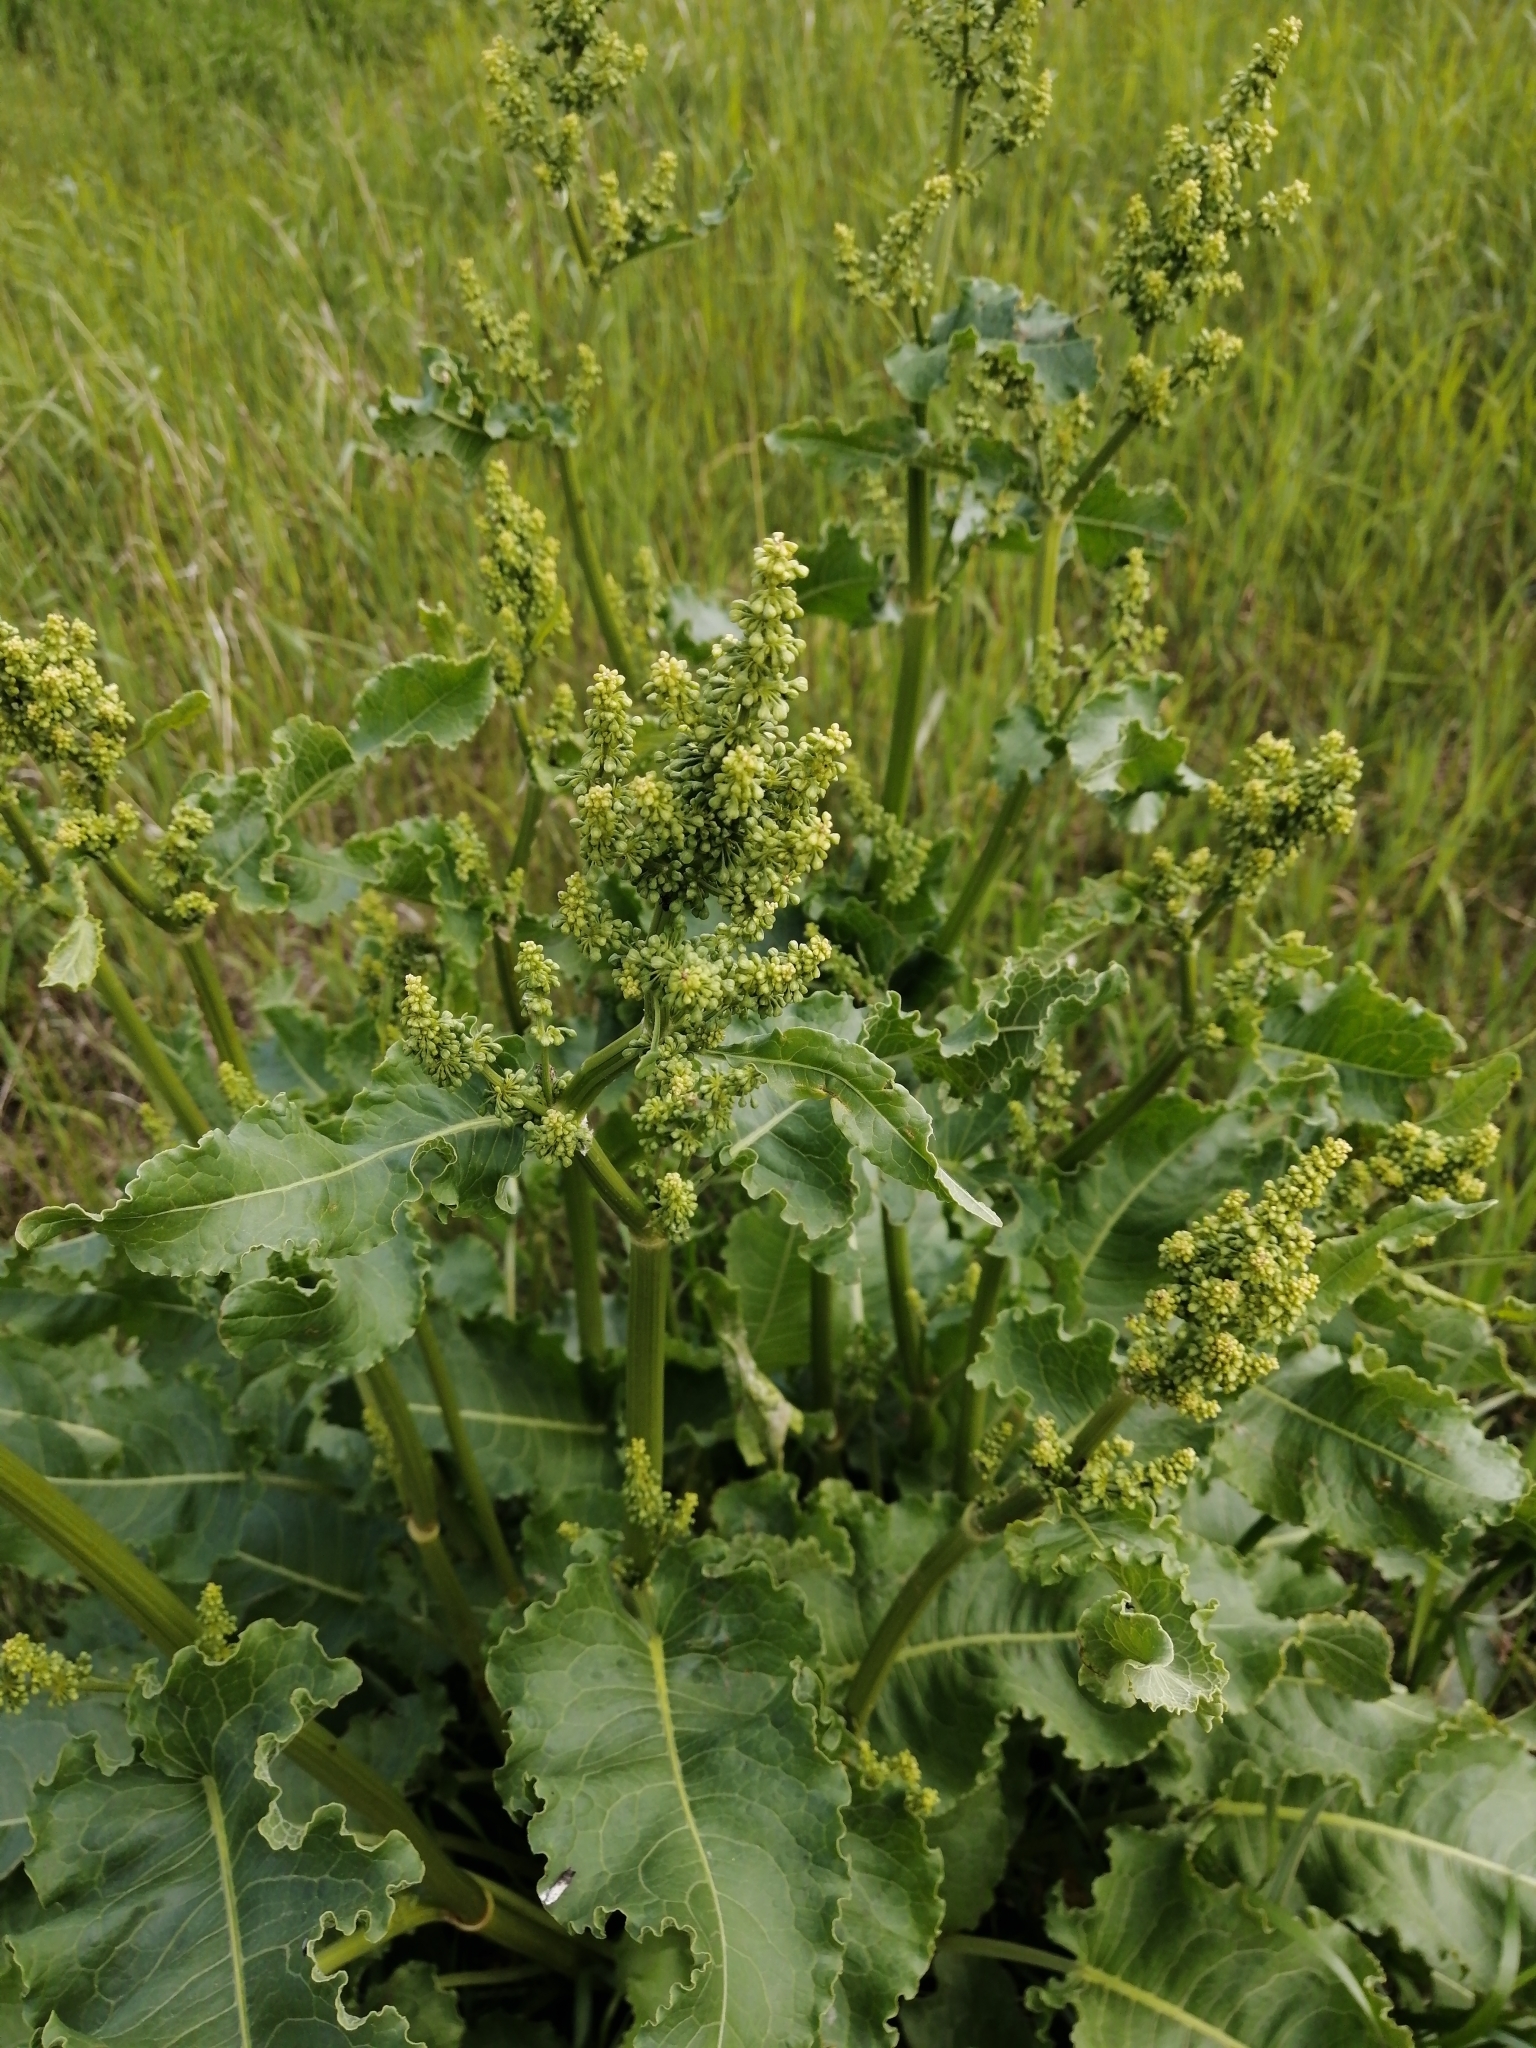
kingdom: Plantae
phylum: Tracheophyta
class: Magnoliopsida
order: Caryophyllales
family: Polygonaceae
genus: Rumex
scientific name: Rumex confertus
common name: Russian dock
